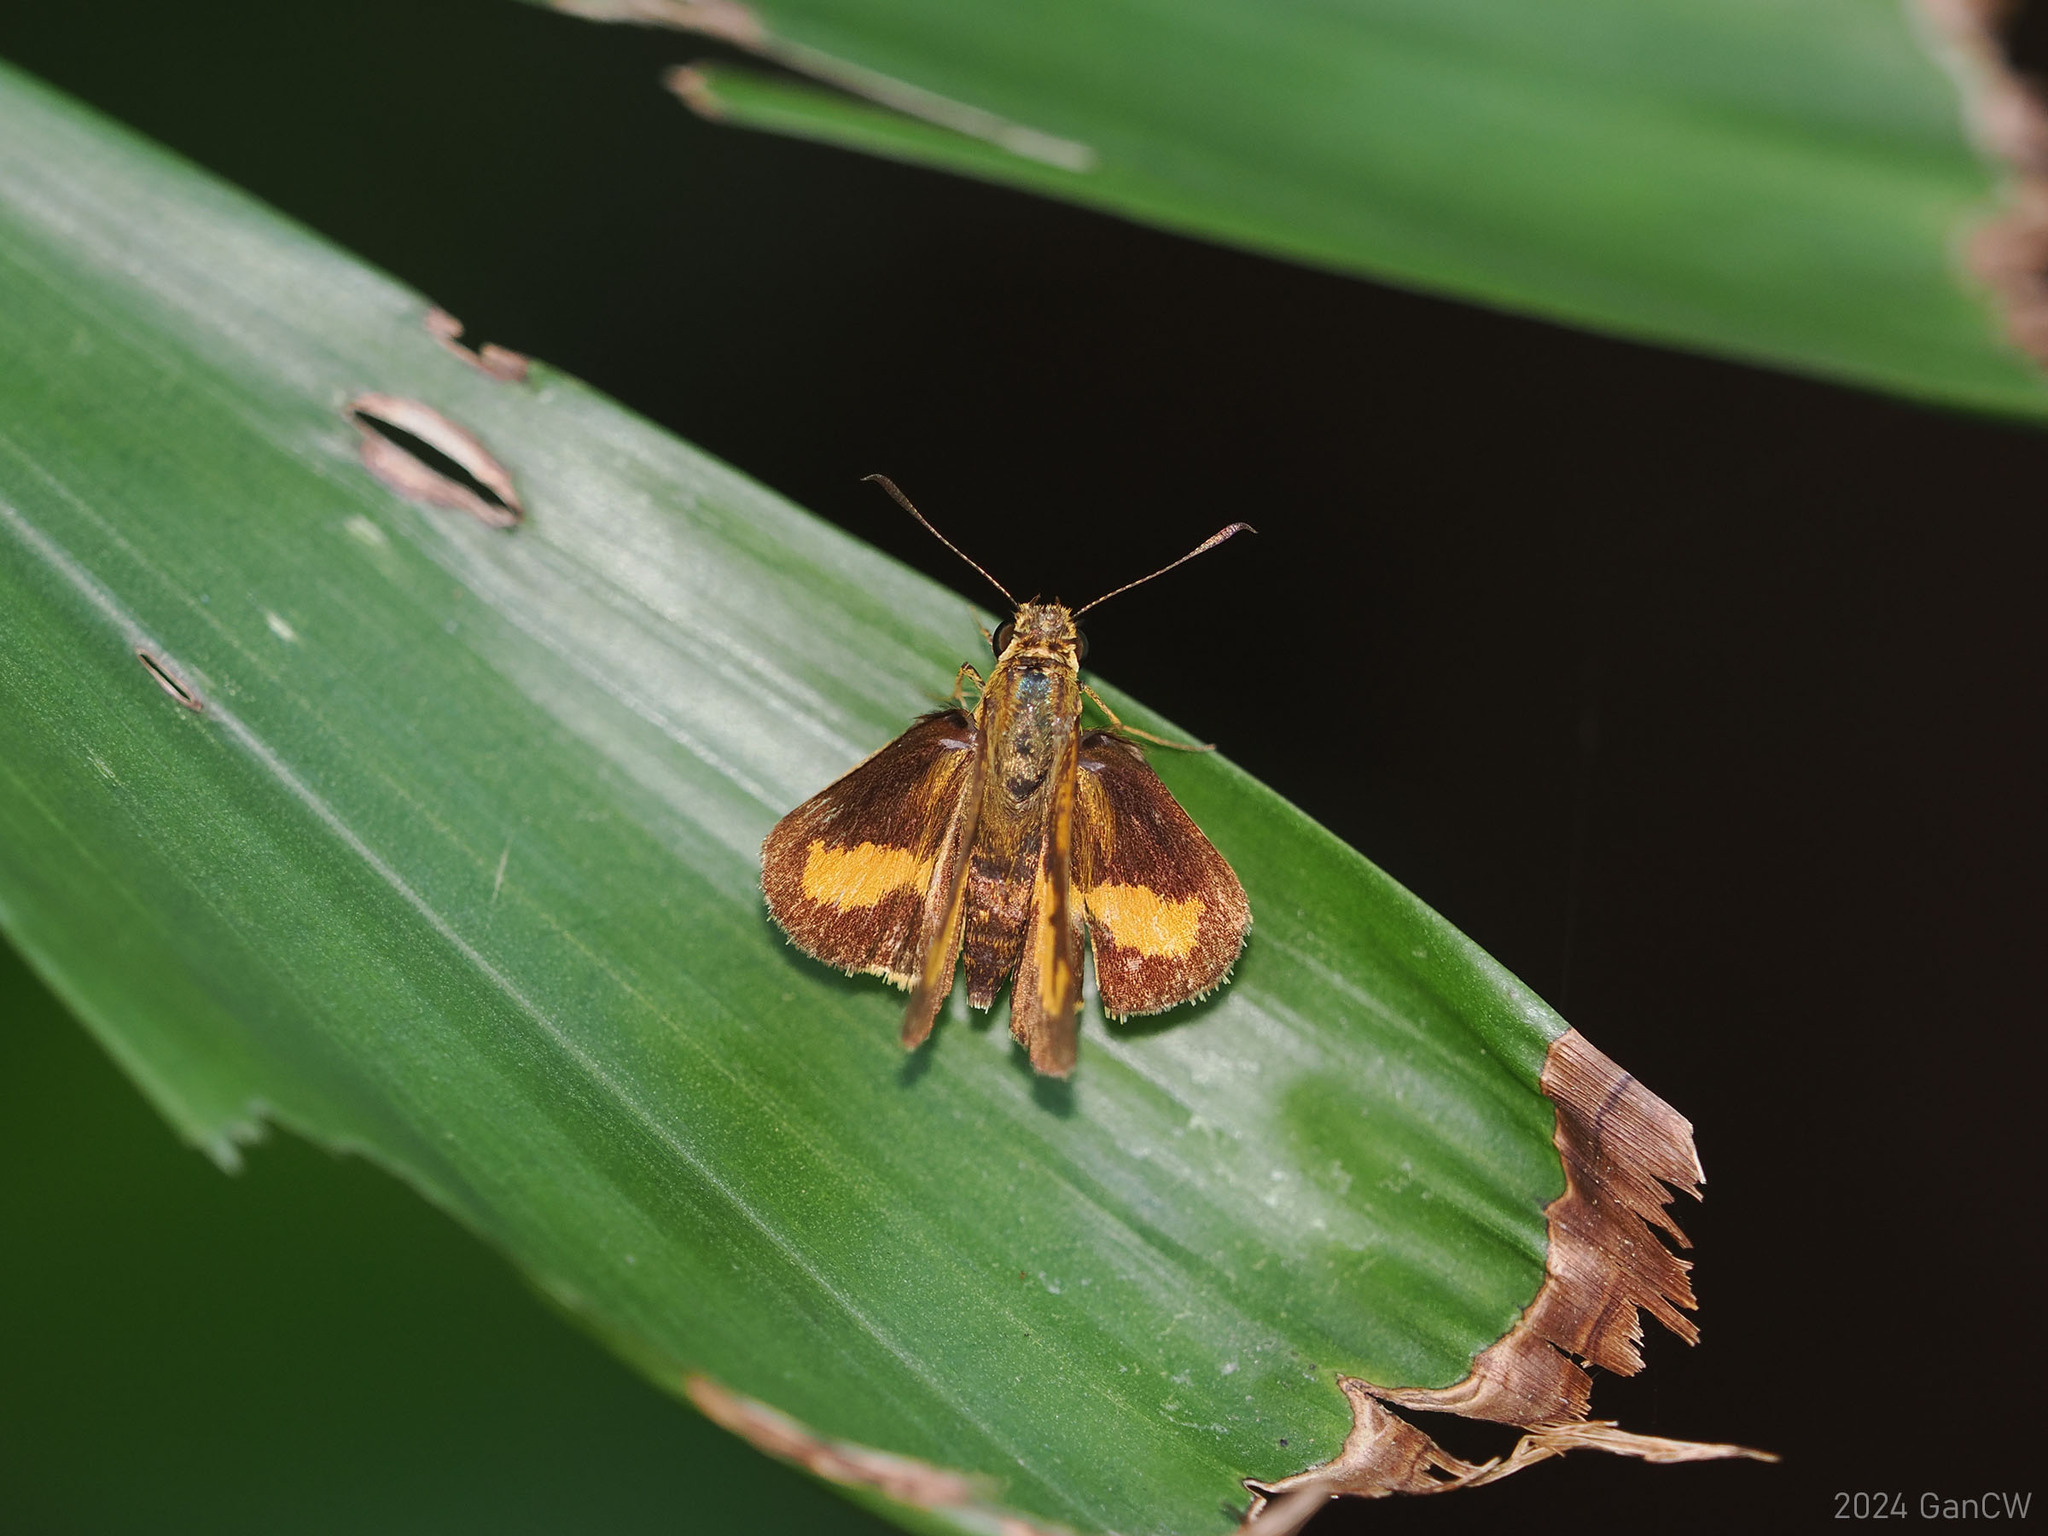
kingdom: Animalia
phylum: Arthropoda
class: Insecta
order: Lepidoptera
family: Hesperiidae
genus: Oriens
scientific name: Oriens gola
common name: Common dartlet
